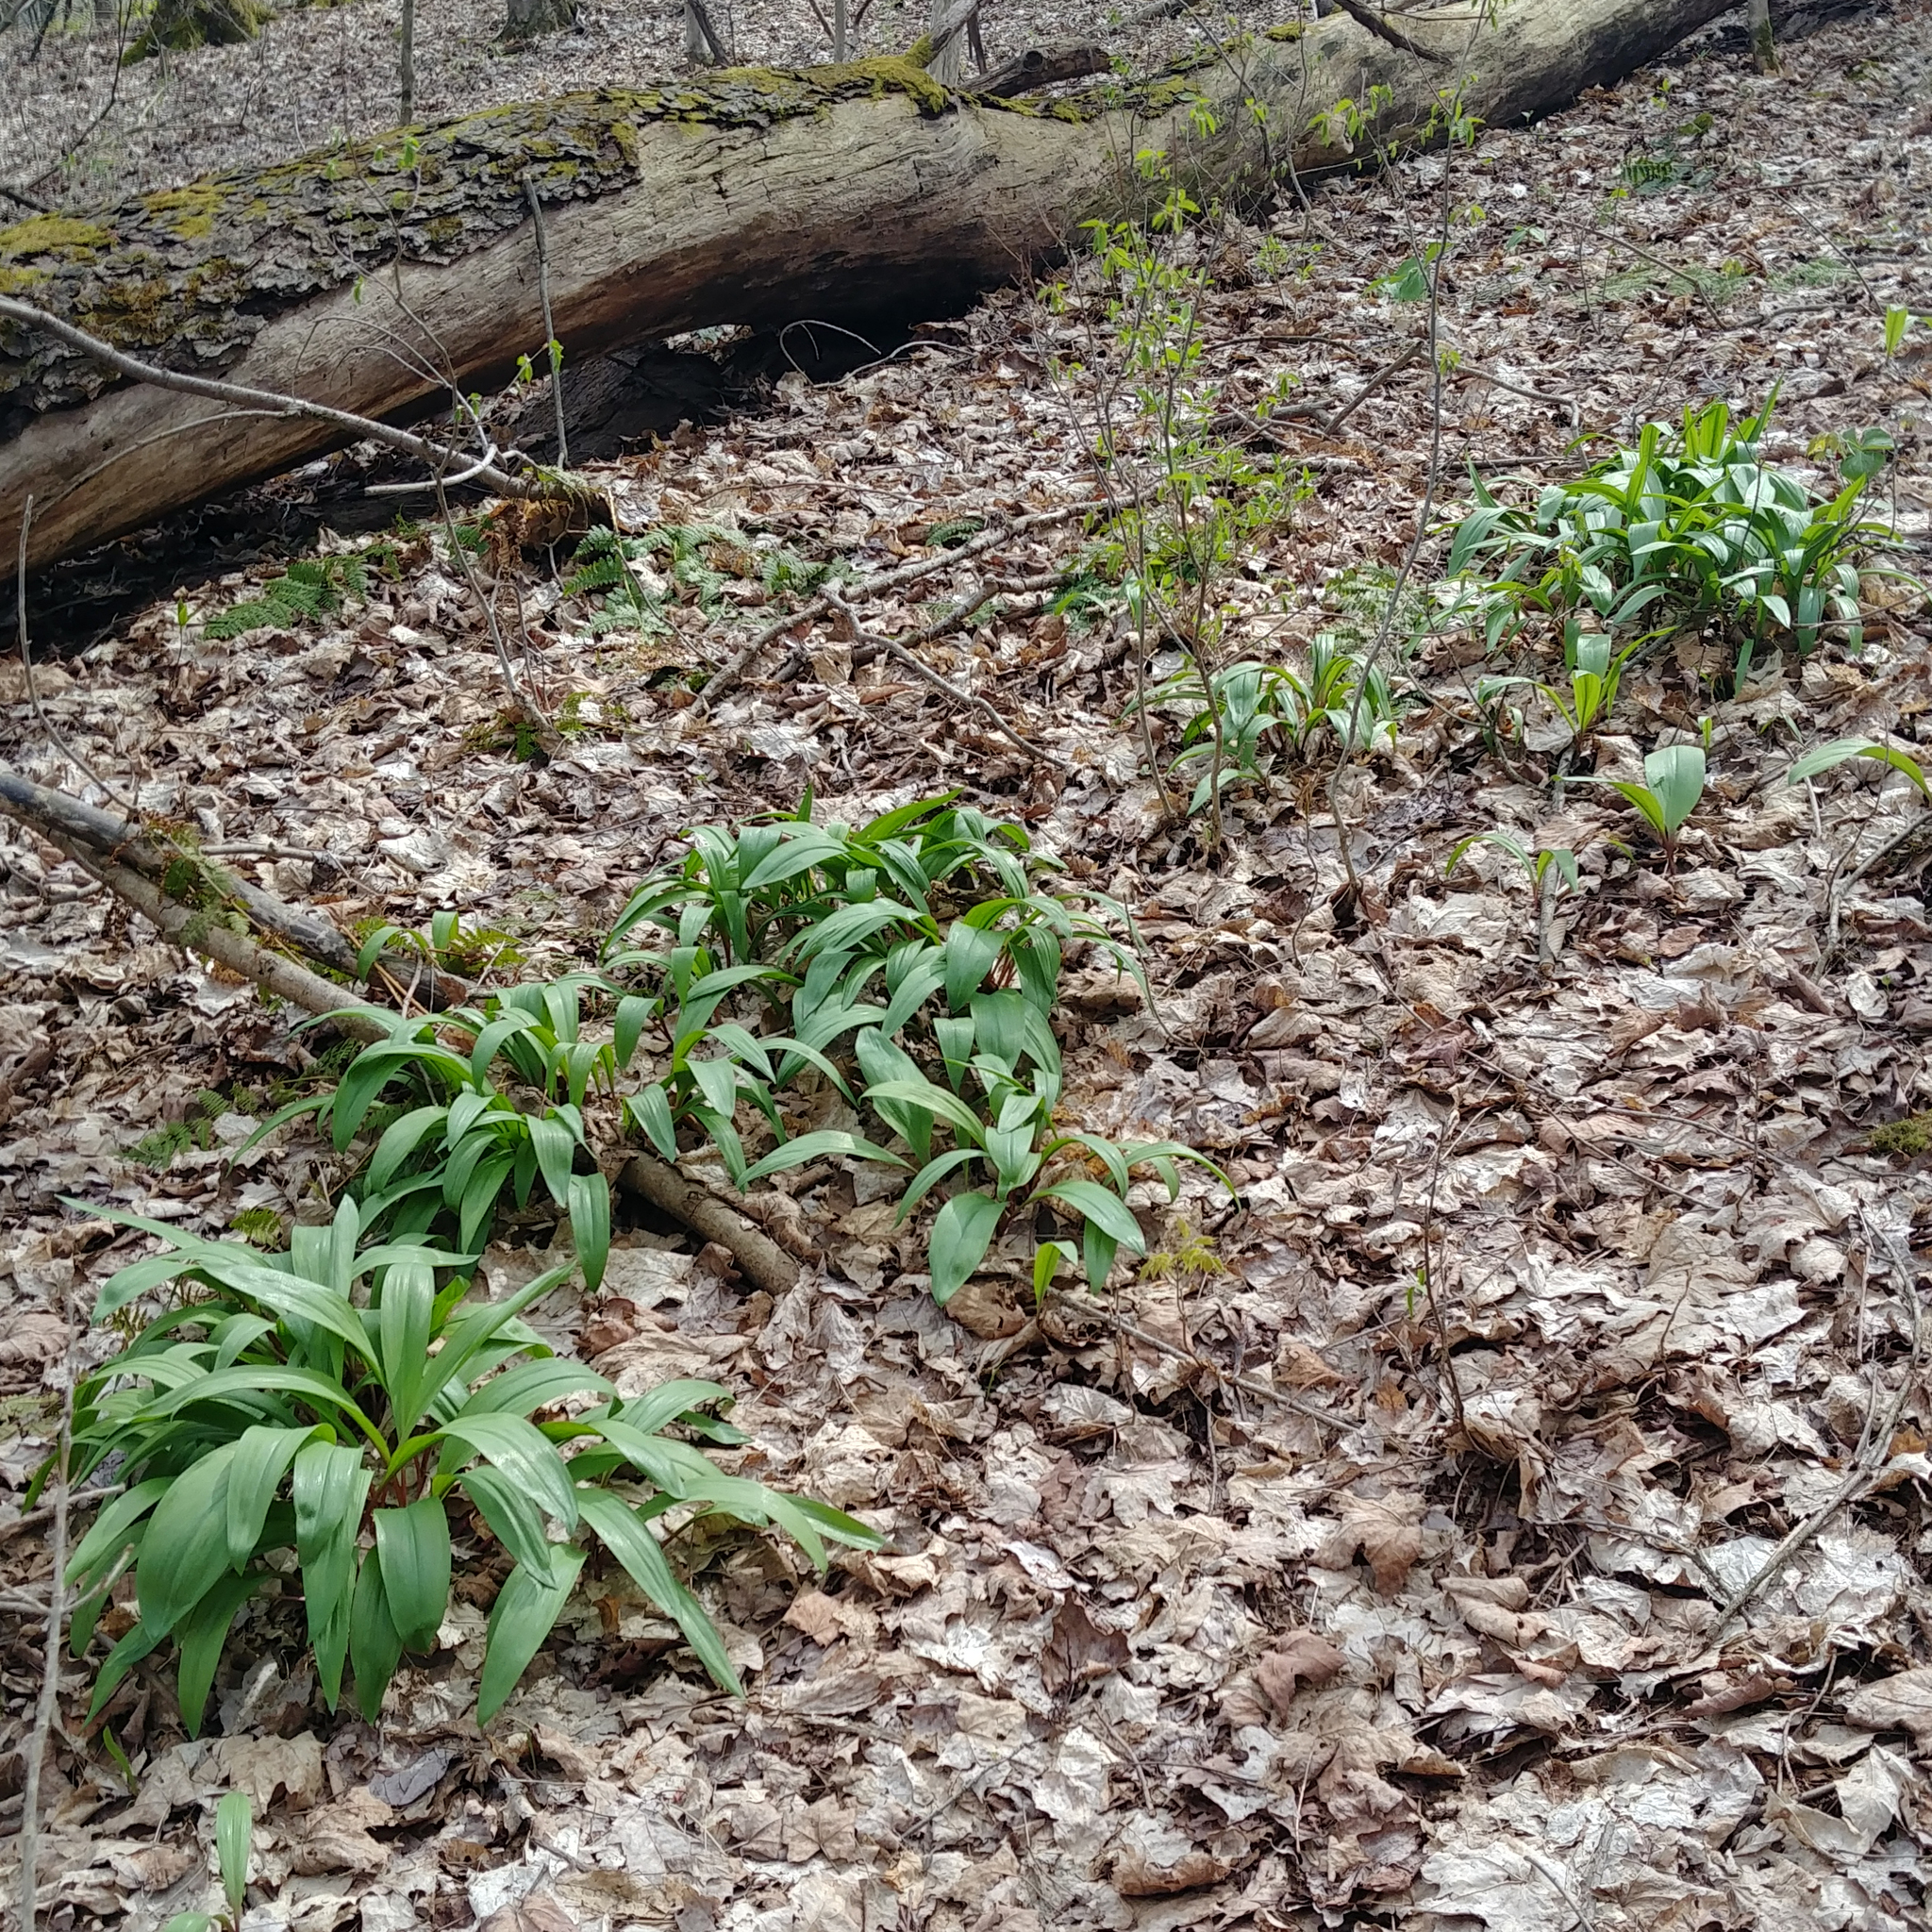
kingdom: Plantae
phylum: Tracheophyta
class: Liliopsida
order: Asparagales
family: Amaryllidaceae
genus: Allium
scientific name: Allium tricoccum
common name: Ramp
